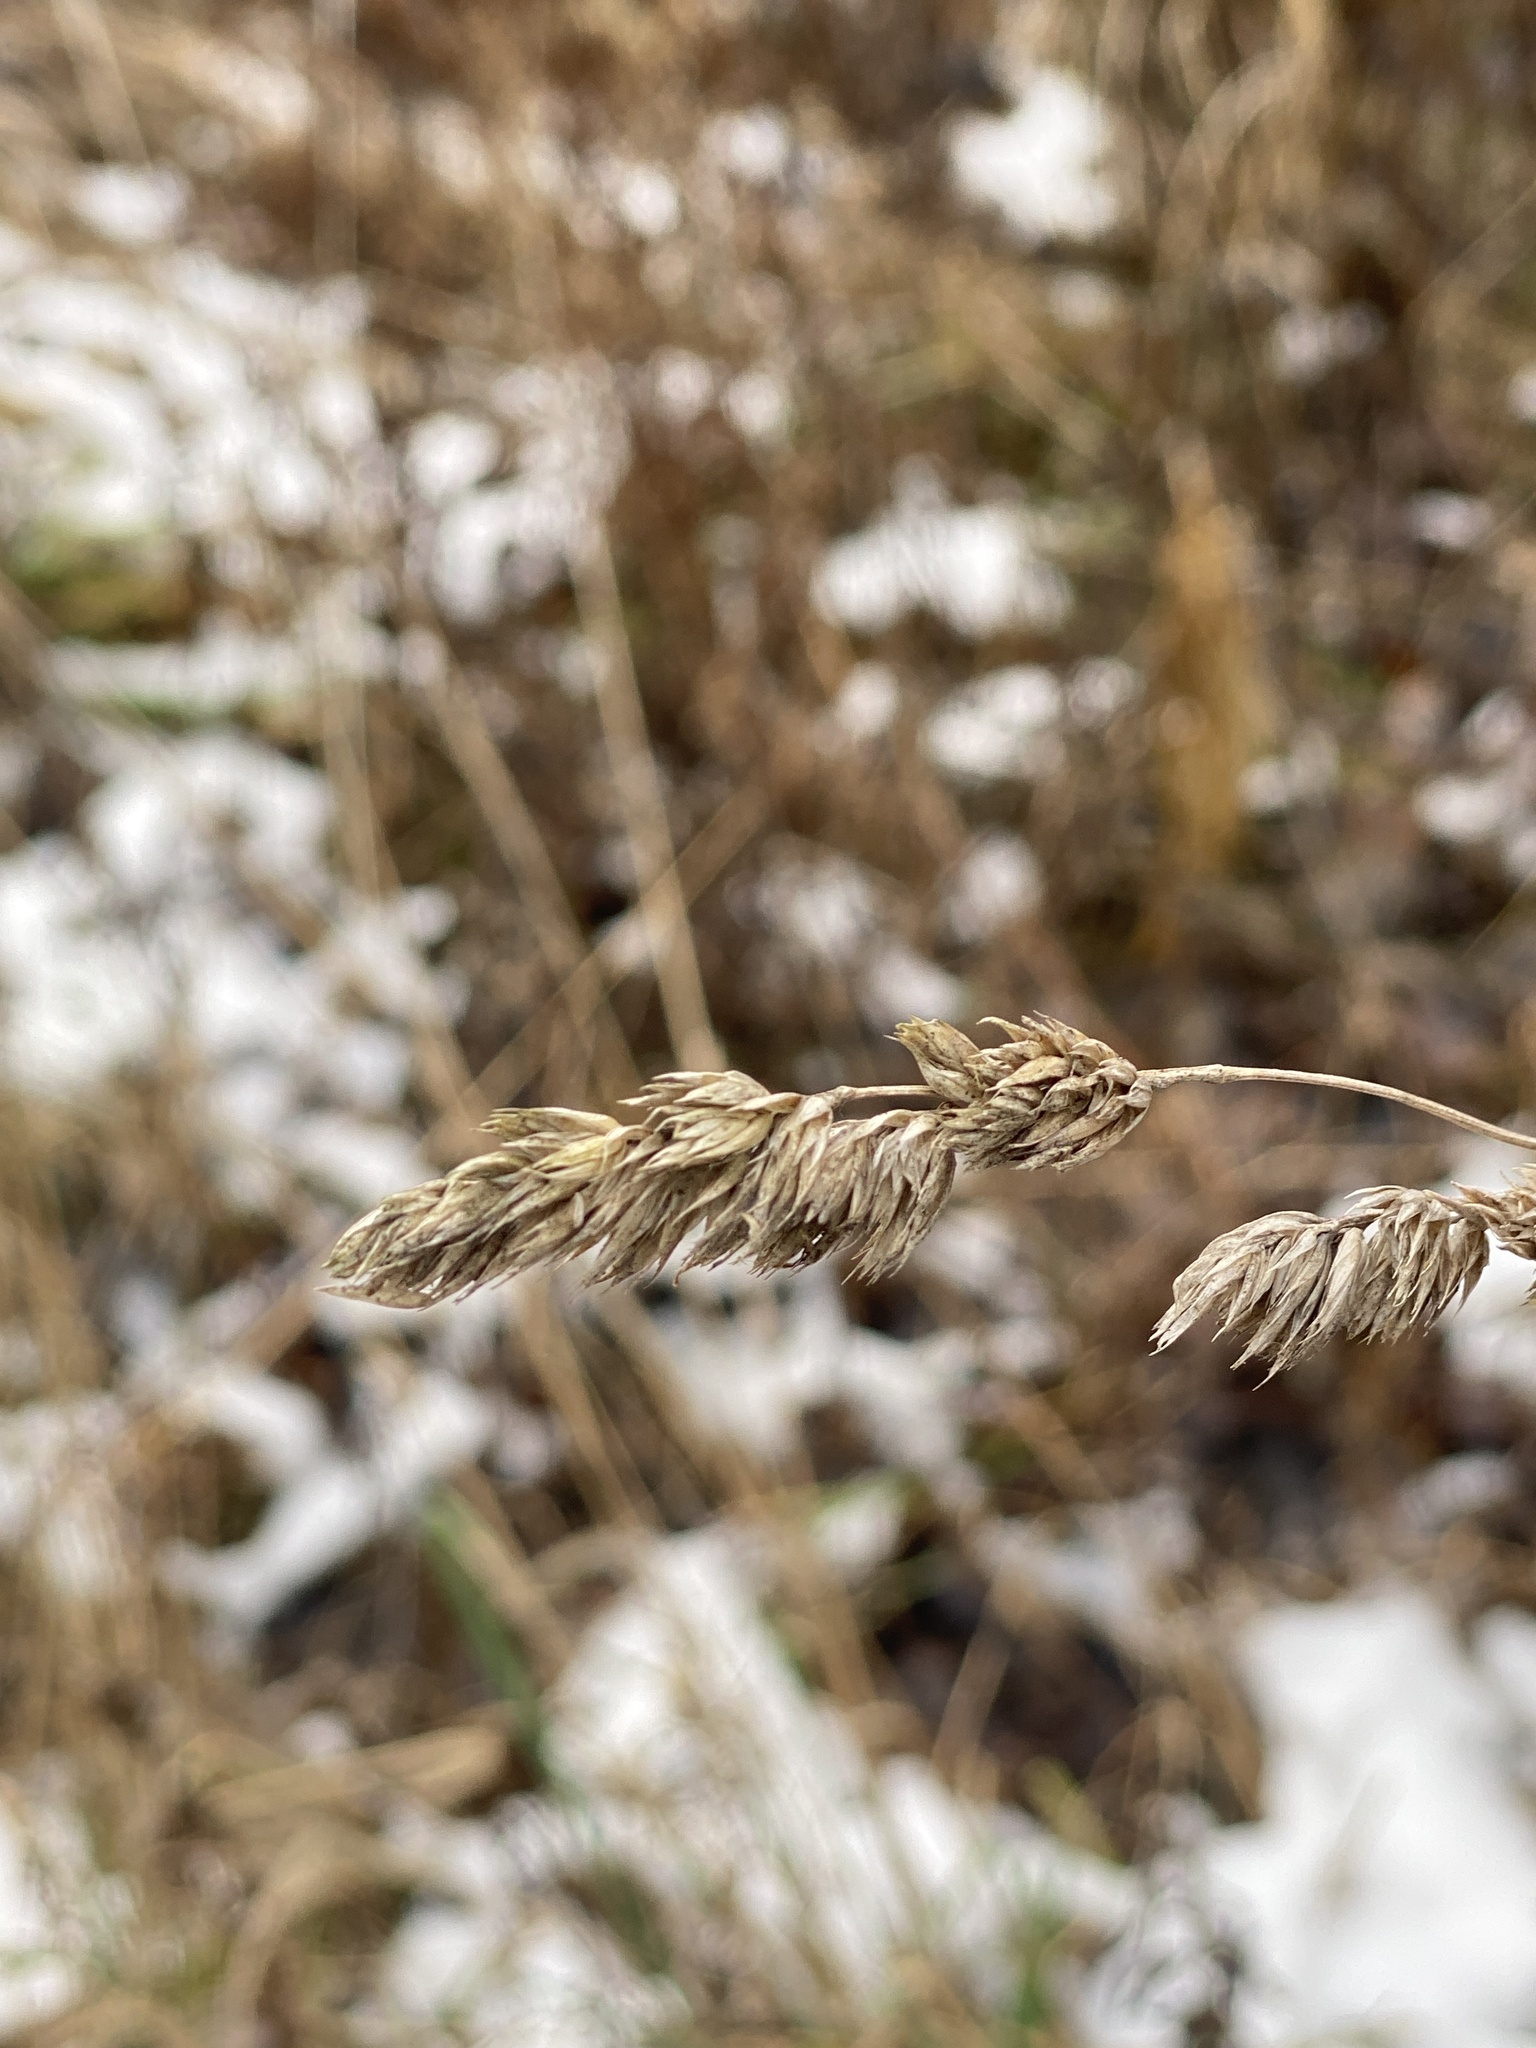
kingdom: Plantae
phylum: Tracheophyta
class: Liliopsida
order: Poales
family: Poaceae
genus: Dactylis
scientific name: Dactylis glomerata
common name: Orchardgrass
